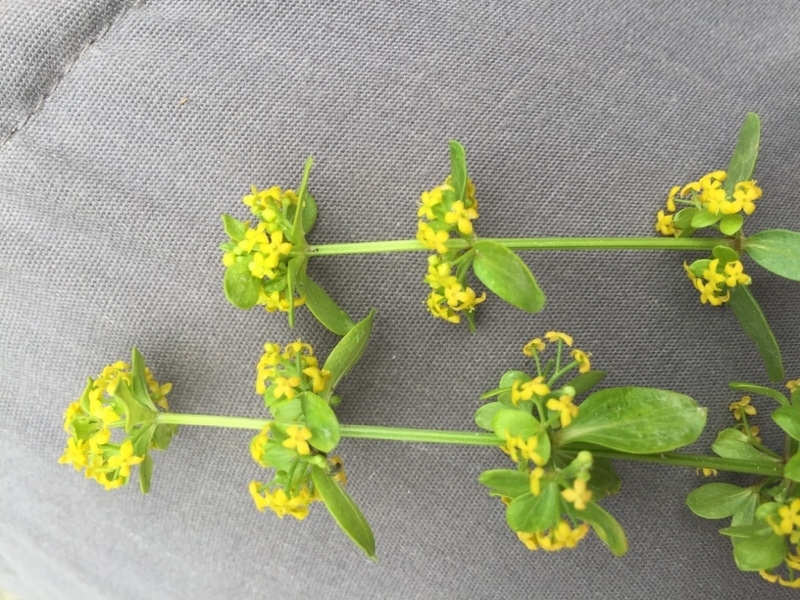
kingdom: Plantae
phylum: Tracheophyta
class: Magnoliopsida
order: Gentianales
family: Rubiaceae
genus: Cruciata
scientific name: Cruciata laevipes
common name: Crosswort
